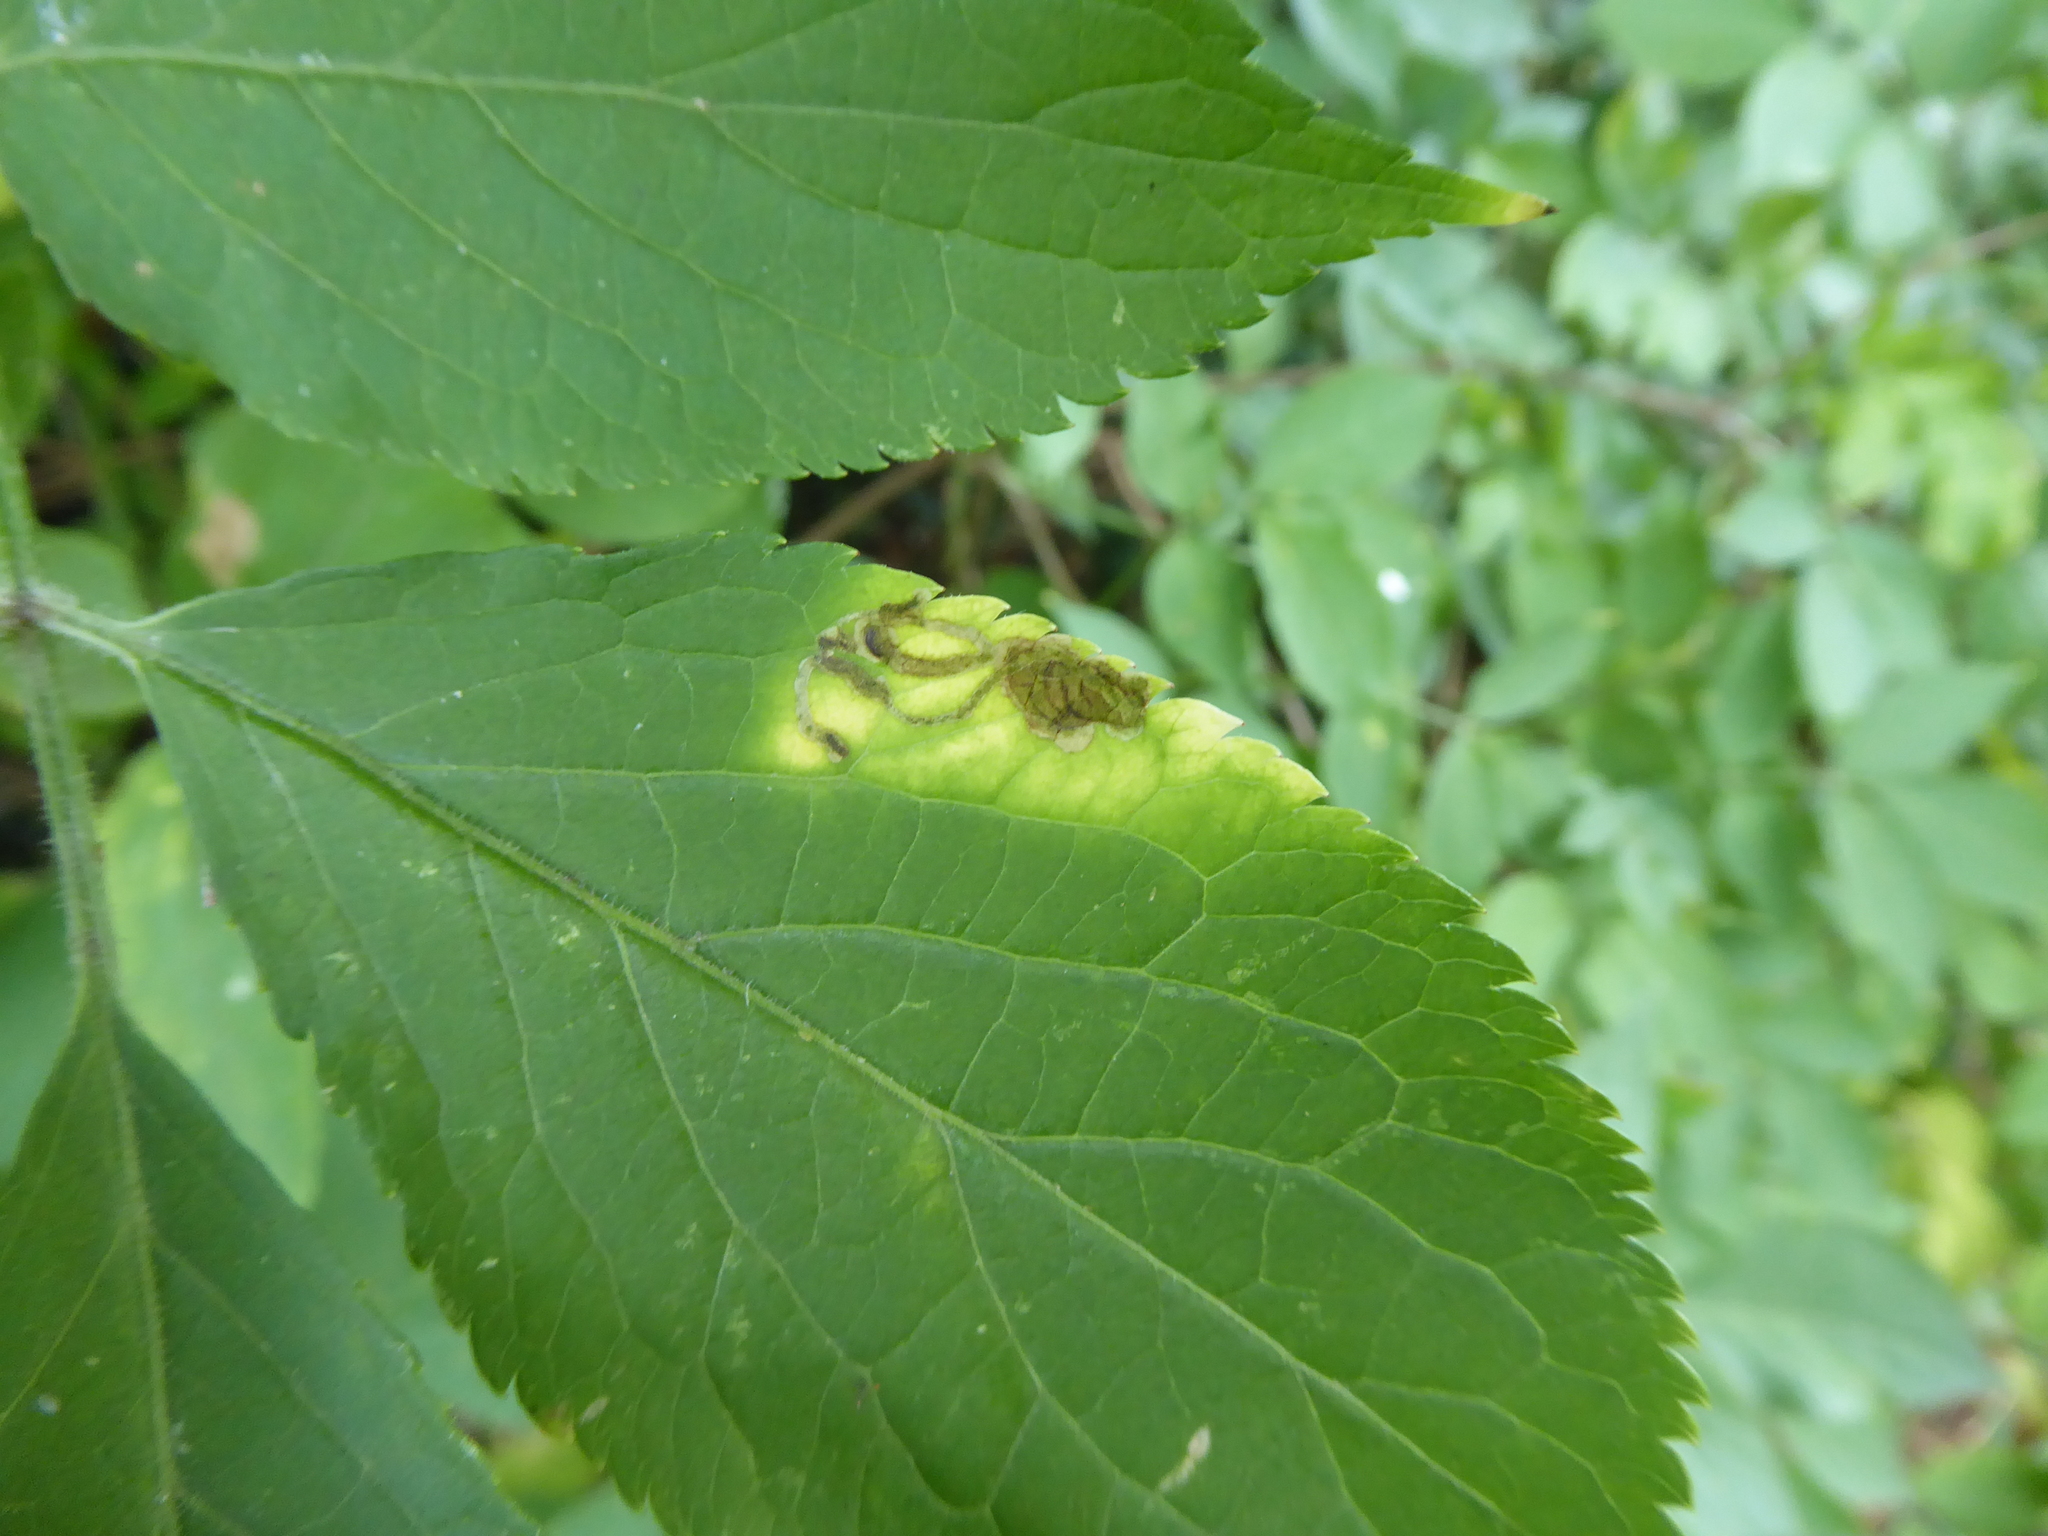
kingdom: Animalia
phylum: Arthropoda
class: Insecta
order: Diptera
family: Agromyzidae
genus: Liriomyza
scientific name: Liriomyza amoena
